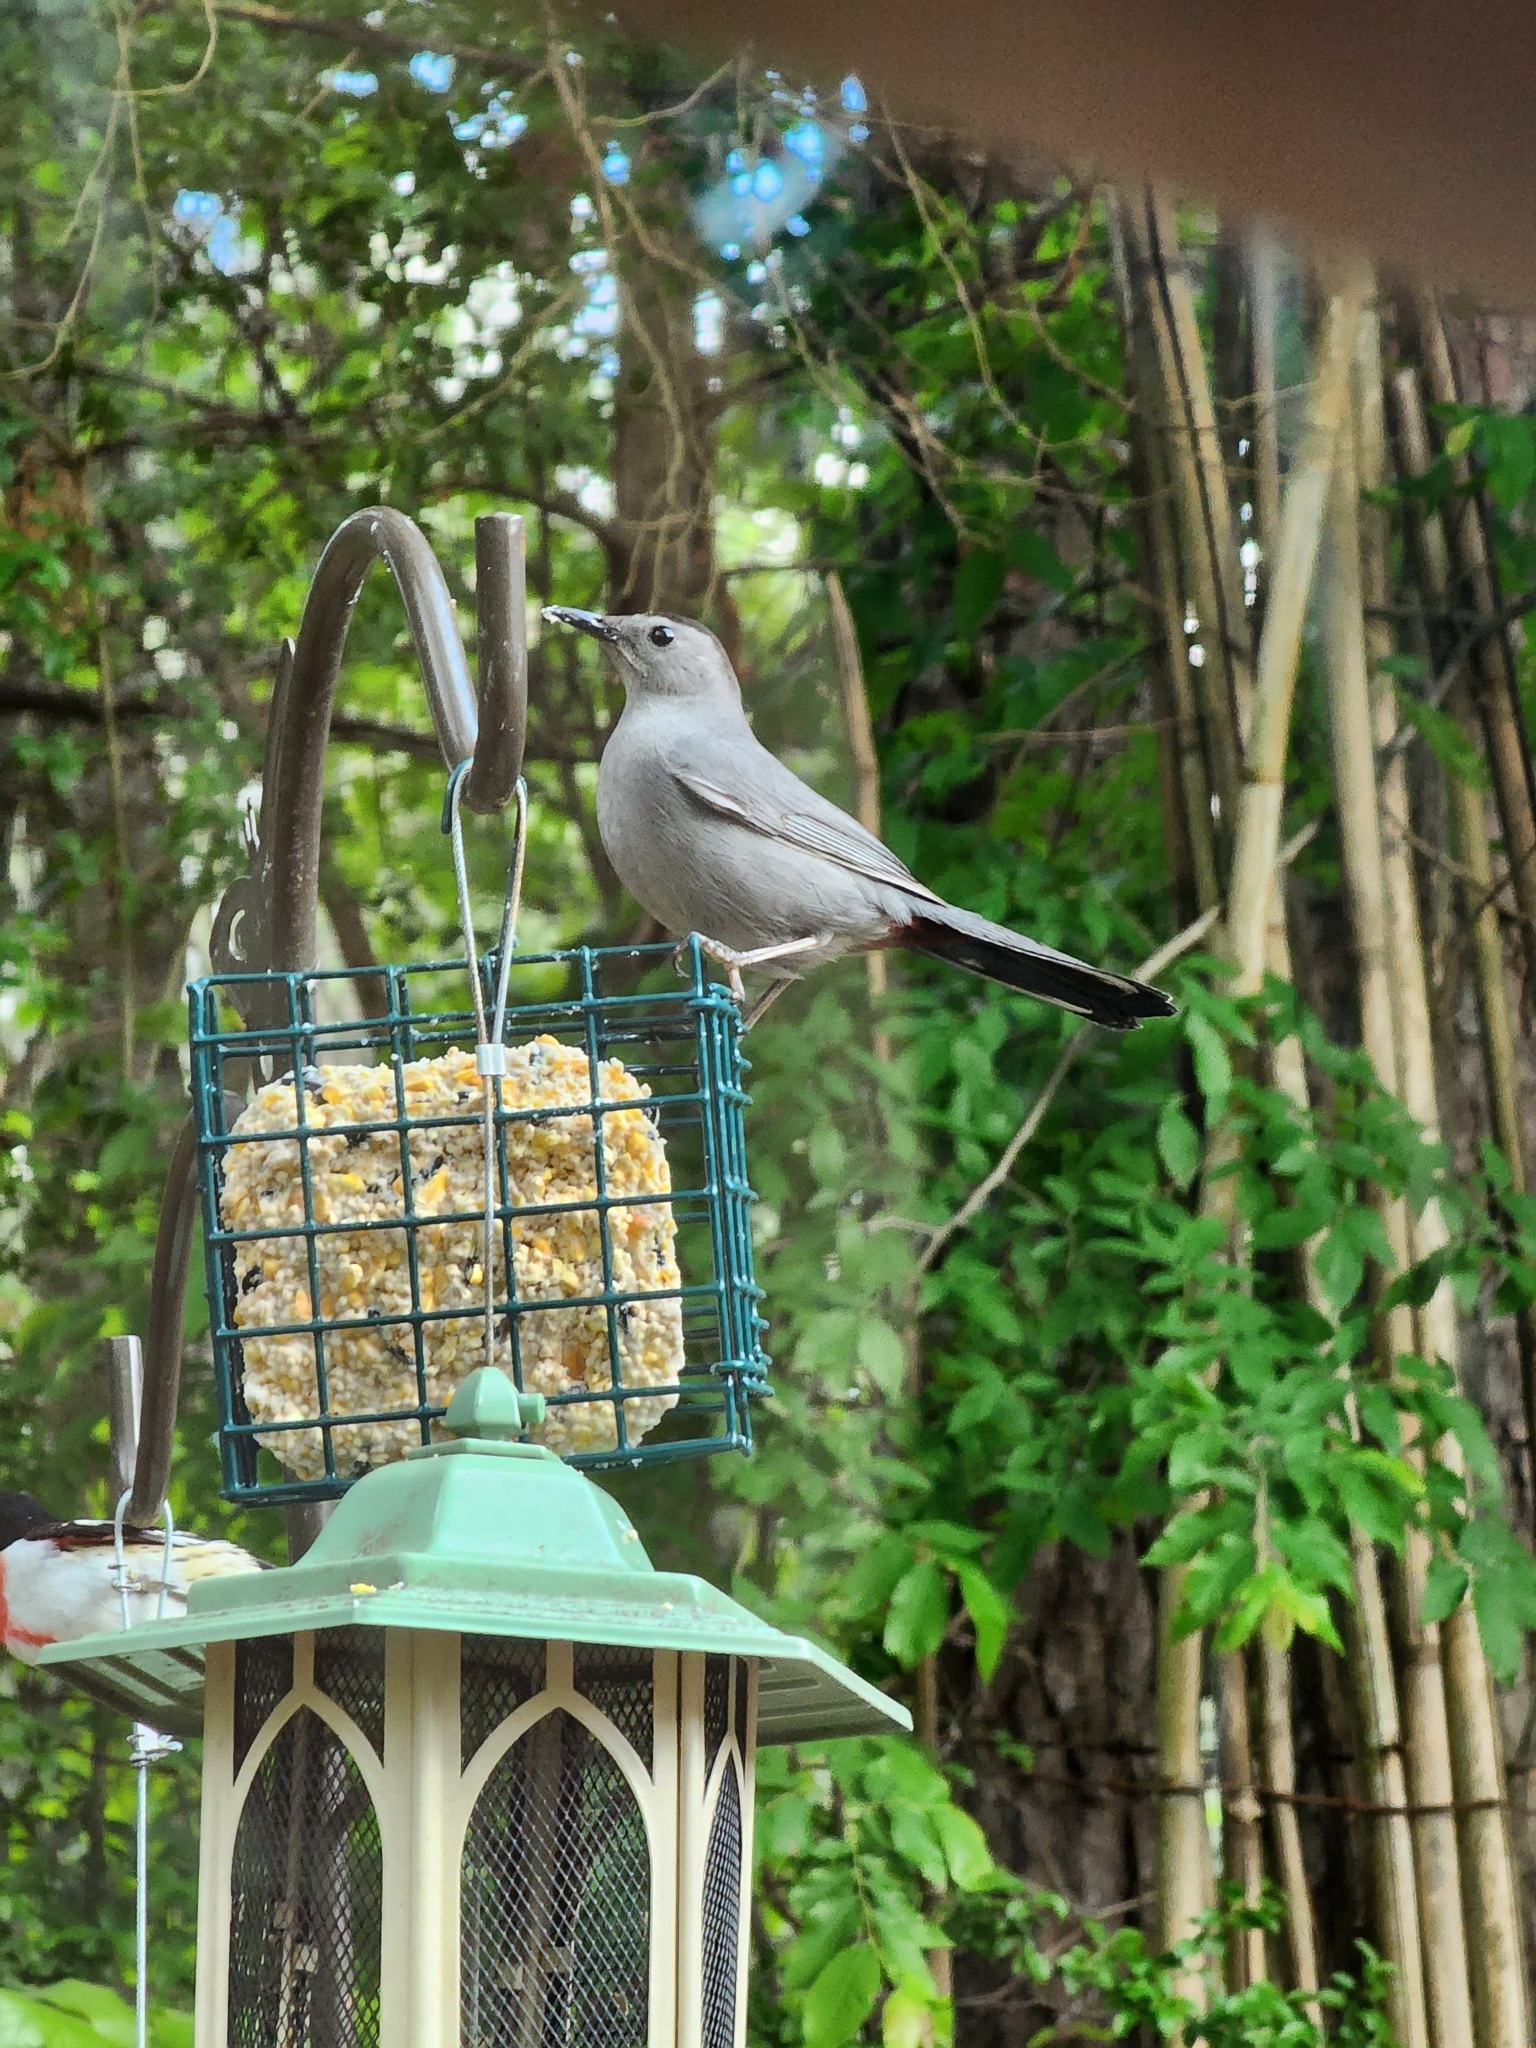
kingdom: Animalia
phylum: Chordata
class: Aves
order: Passeriformes
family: Mimidae
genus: Dumetella
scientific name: Dumetella carolinensis
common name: Gray catbird
